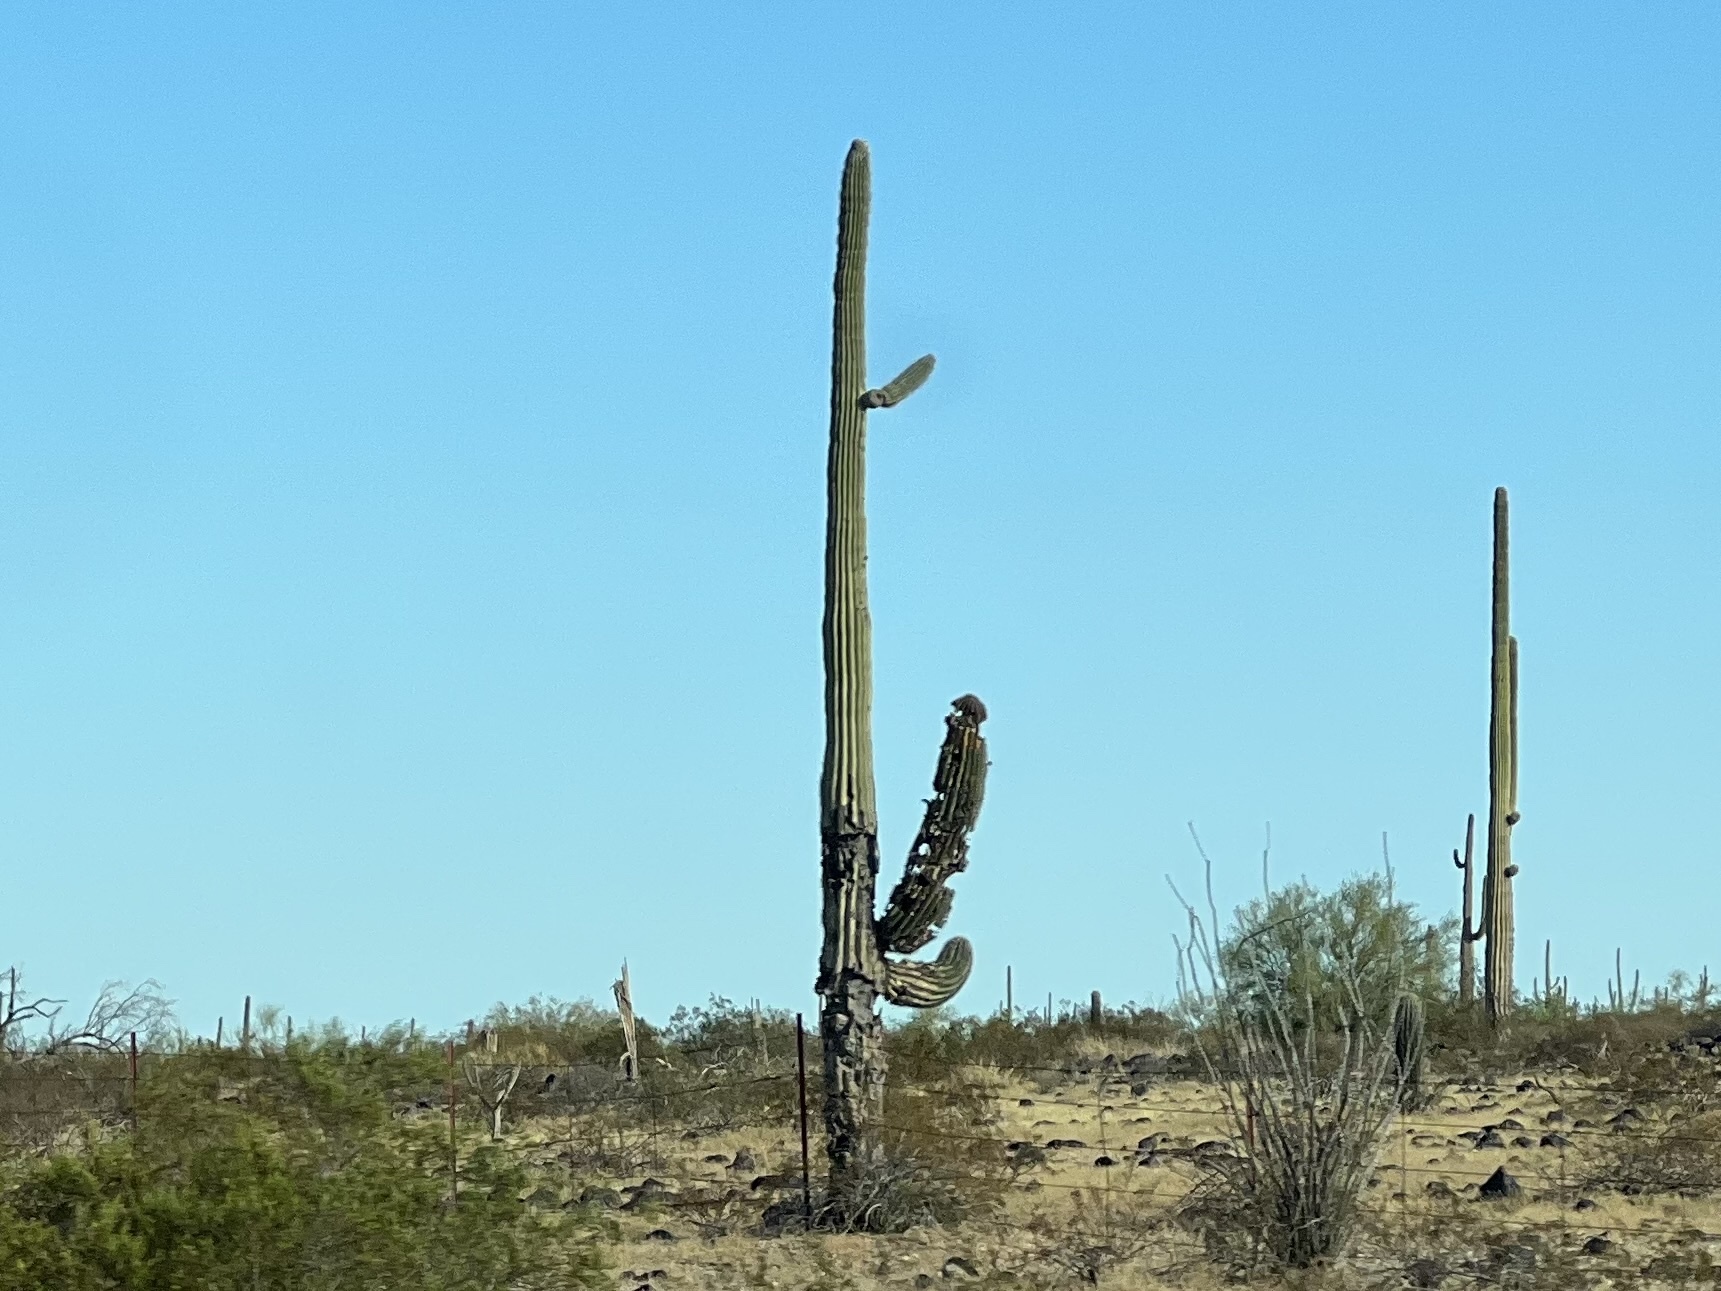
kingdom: Plantae
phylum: Tracheophyta
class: Magnoliopsida
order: Caryophyllales
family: Cactaceae
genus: Carnegiea
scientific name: Carnegiea gigantea
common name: Saguaro
